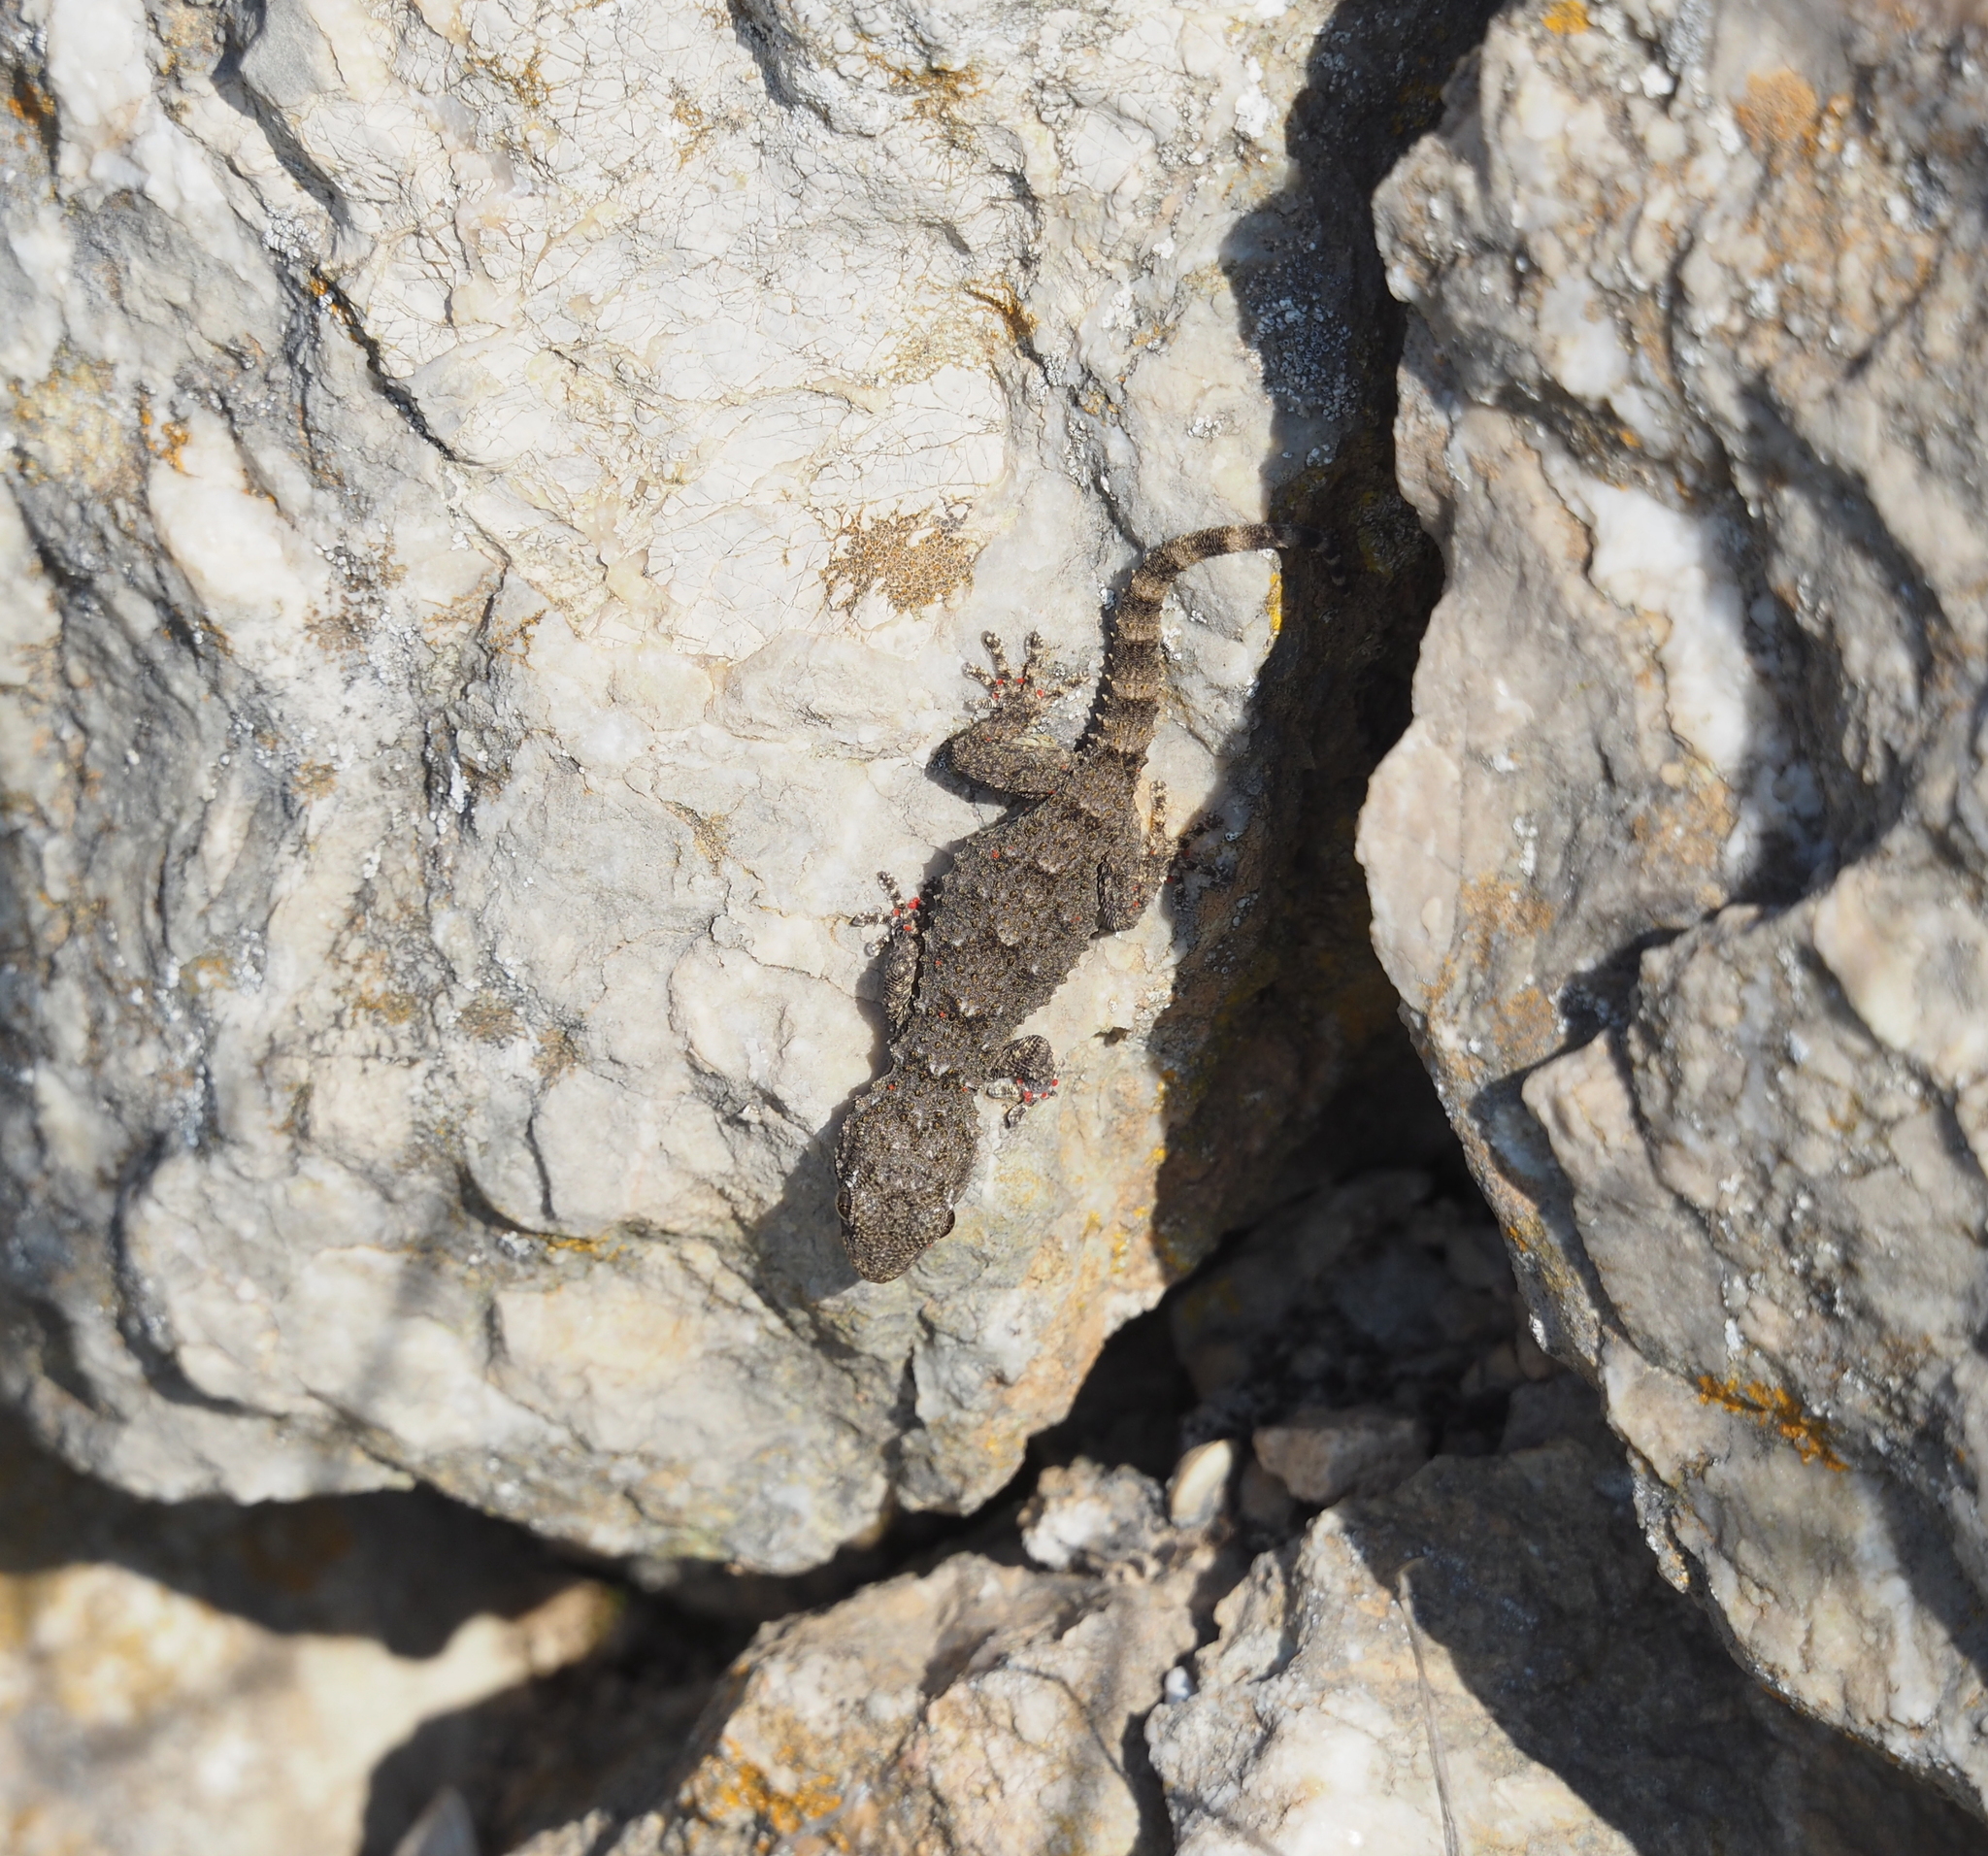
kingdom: Animalia
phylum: Chordata
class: Squamata
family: Phyllodactylidae
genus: Tarentola
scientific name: Tarentola mauritanica
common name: Moorish gecko
